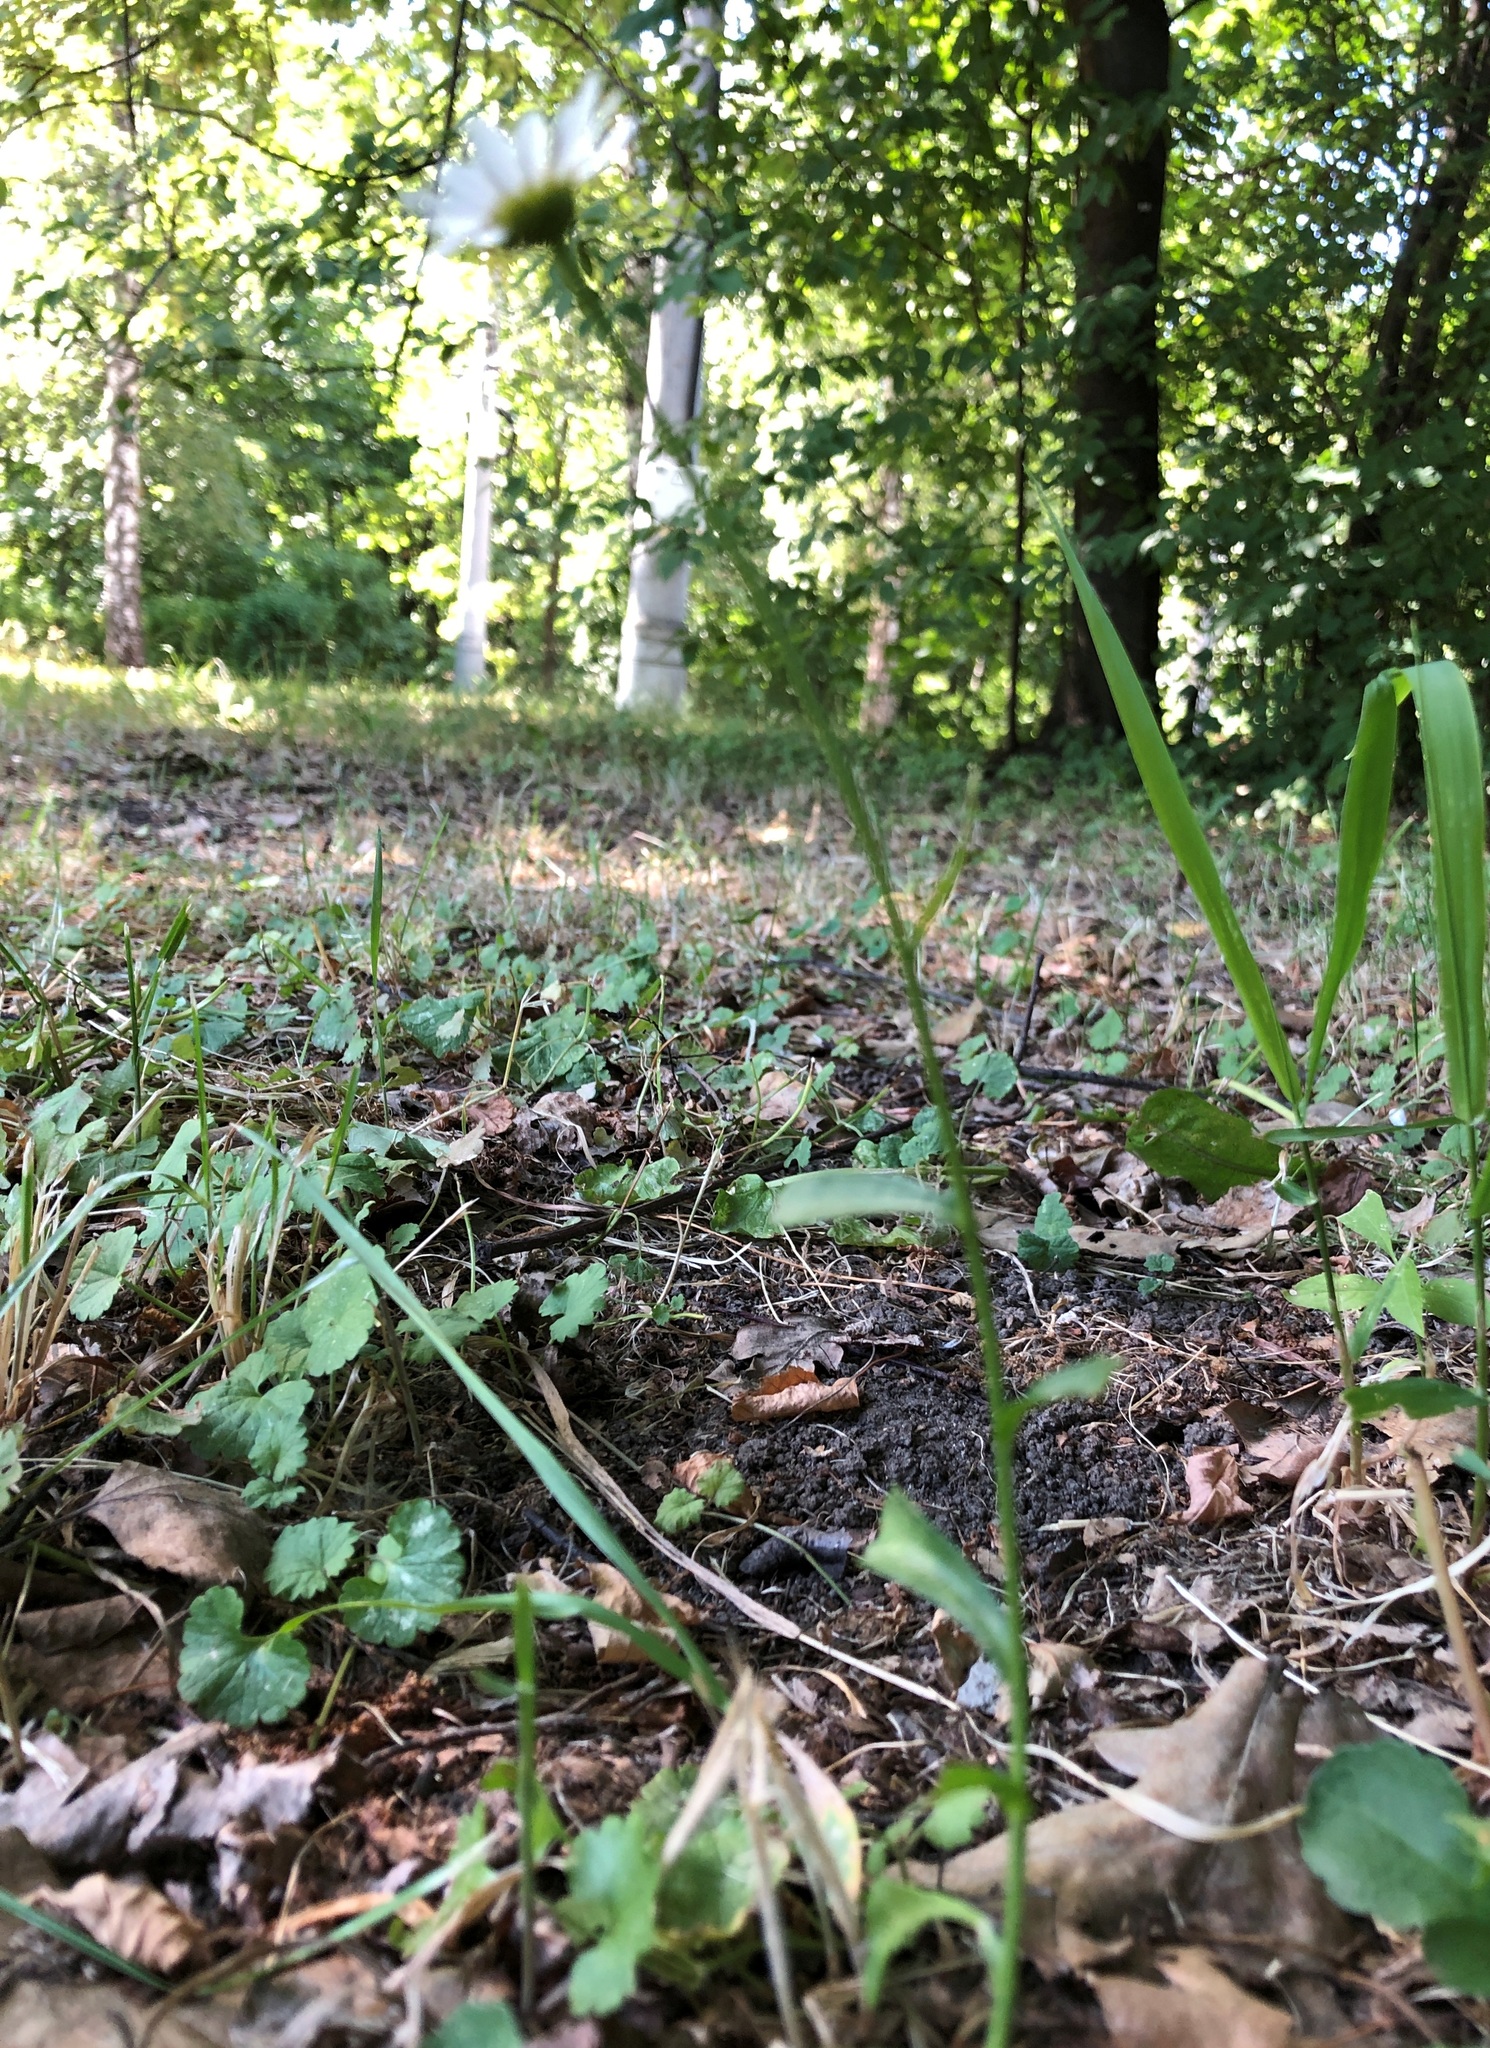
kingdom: Plantae
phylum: Tracheophyta
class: Magnoliopsida
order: Asterales
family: Asteraceae
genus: Leucanthemum
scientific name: Leucanthemum vulgare
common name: Oxeye daisy
